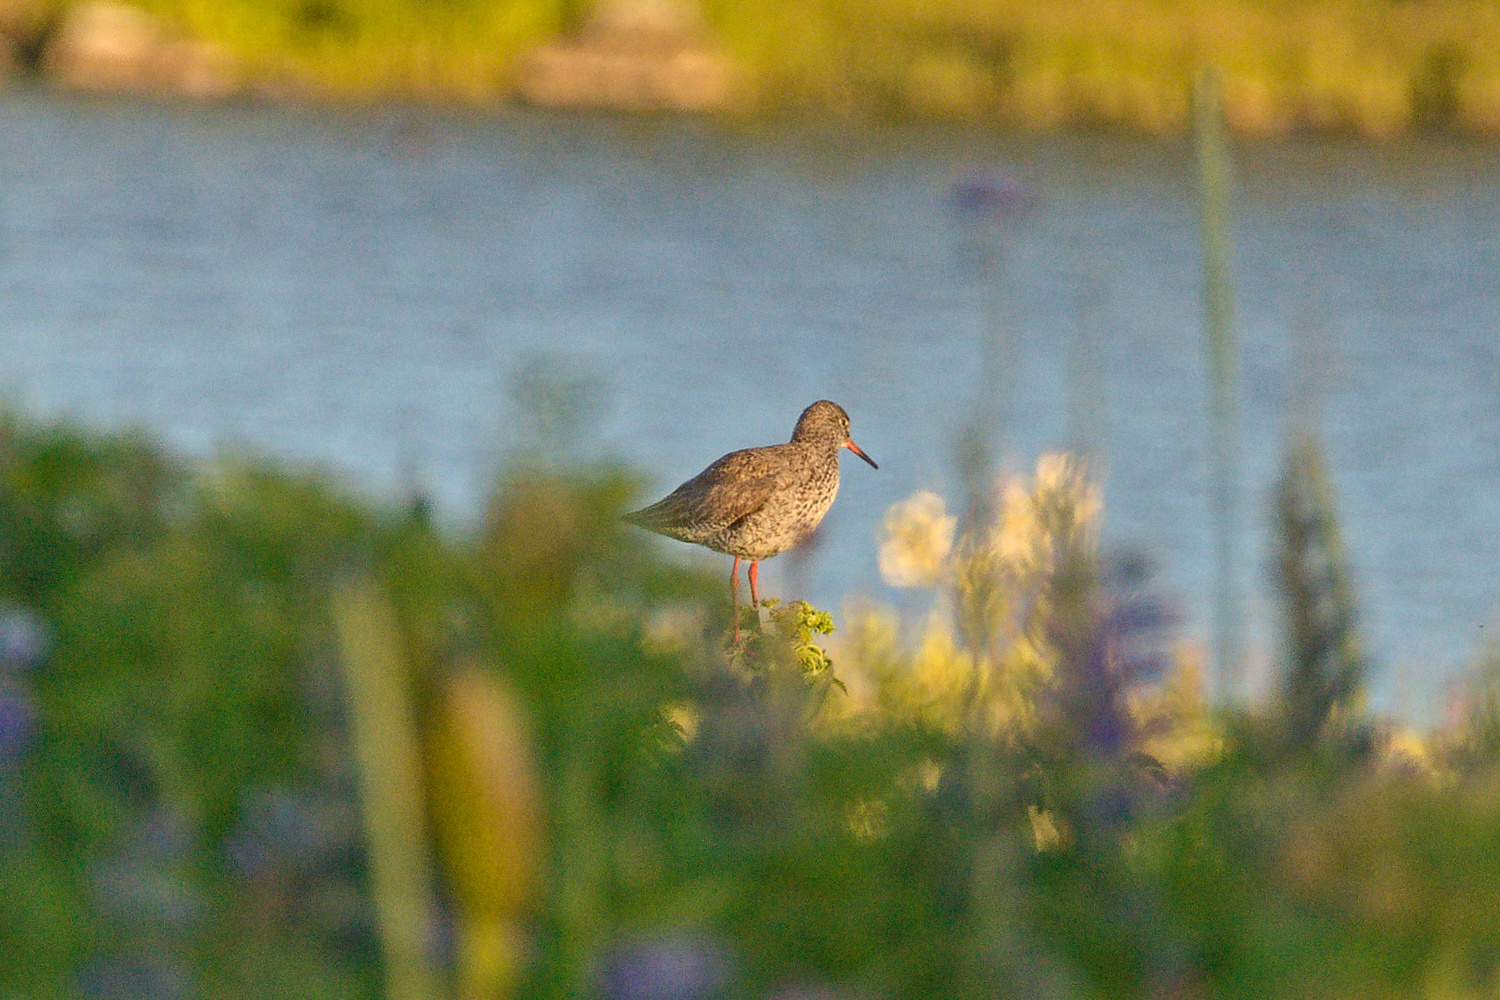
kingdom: Animalia
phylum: Chordata
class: Aves
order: Charadriiformes
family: Scolopacidae
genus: Tringa
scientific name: Tringa totanus
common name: Common redshank
